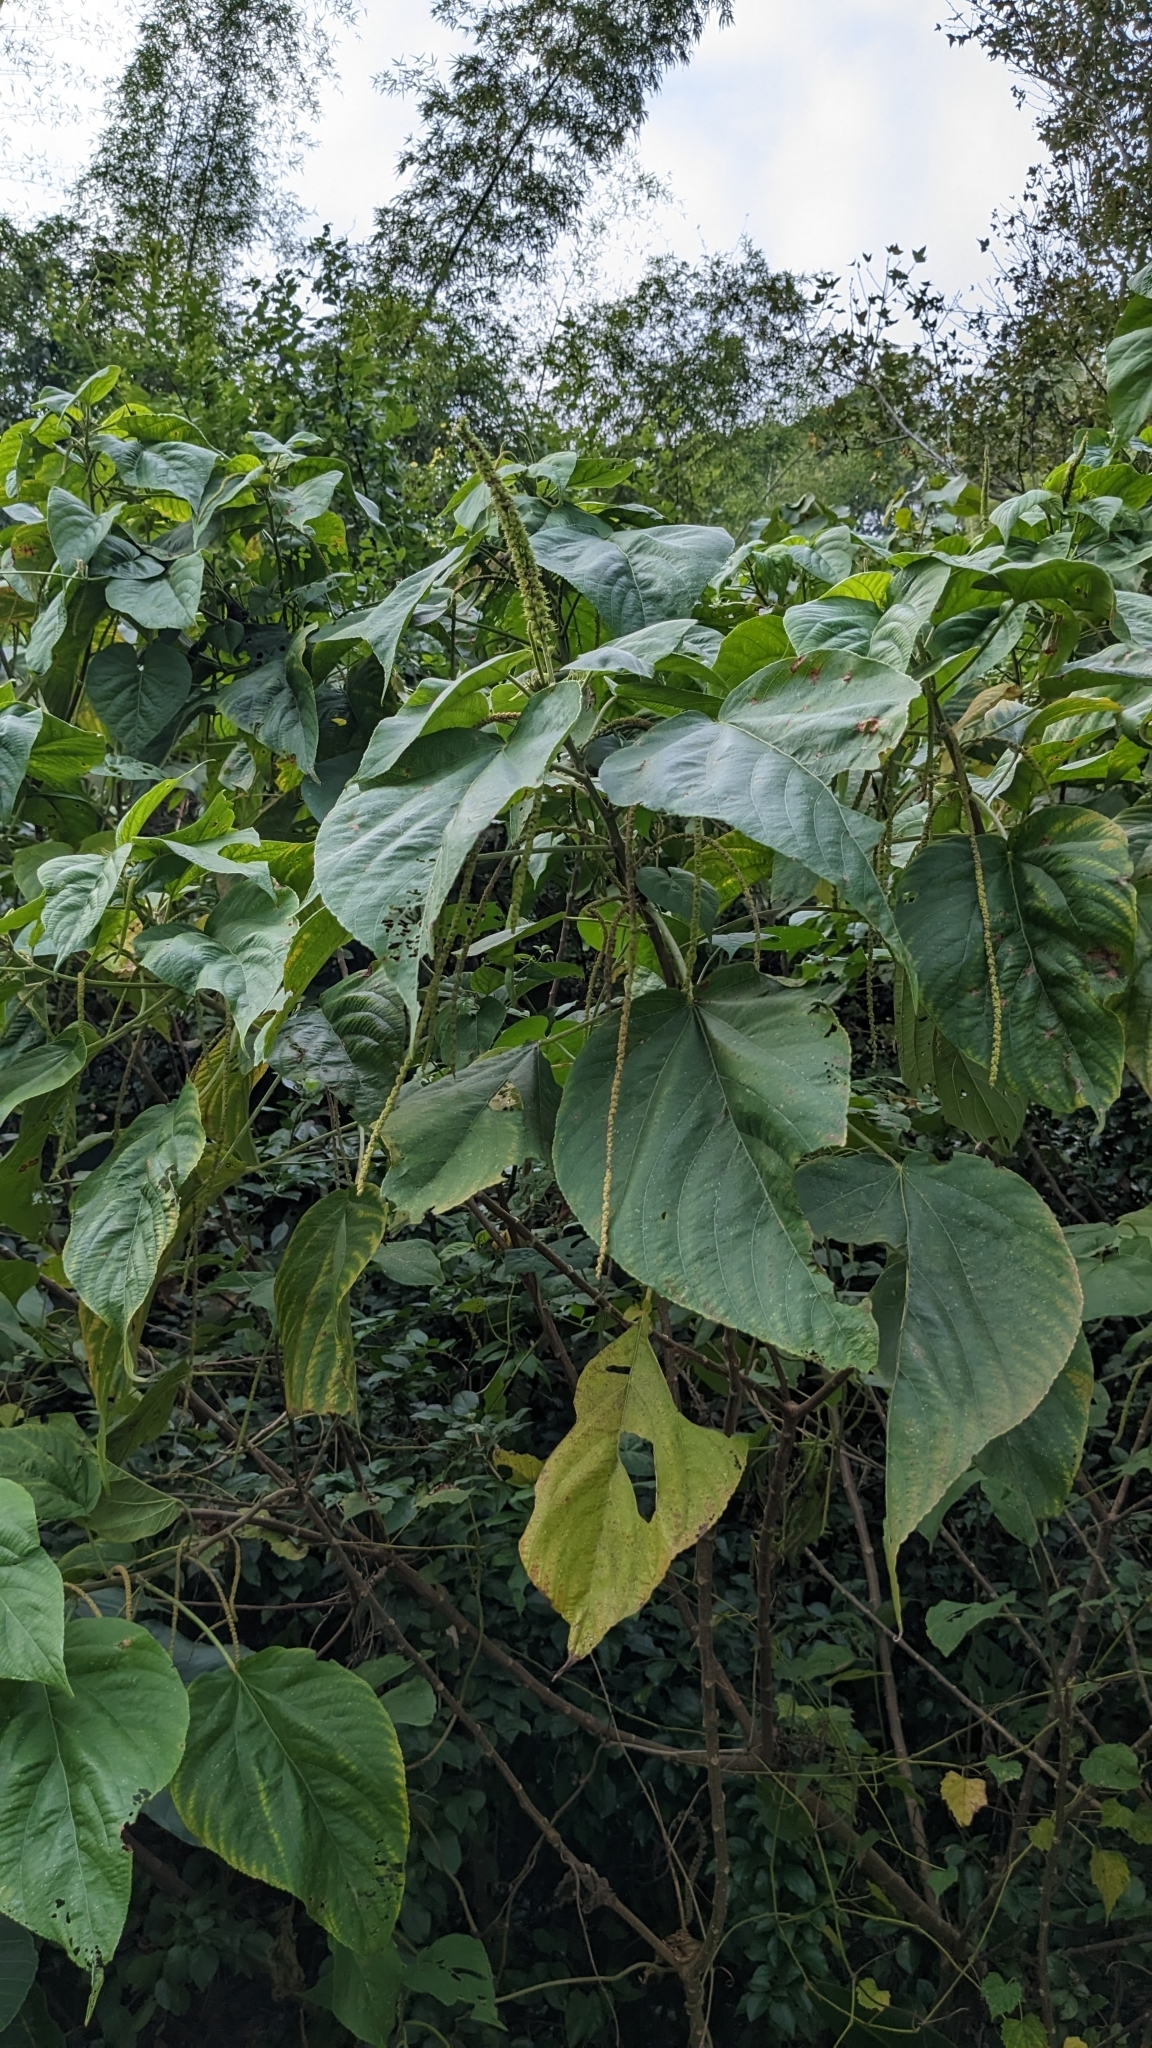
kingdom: Plantae
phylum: Tracheophyta
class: Magnoliopsida
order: Malpighiales
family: Euphorbiaceae
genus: Acalypha
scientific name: Acalypha angatensis
